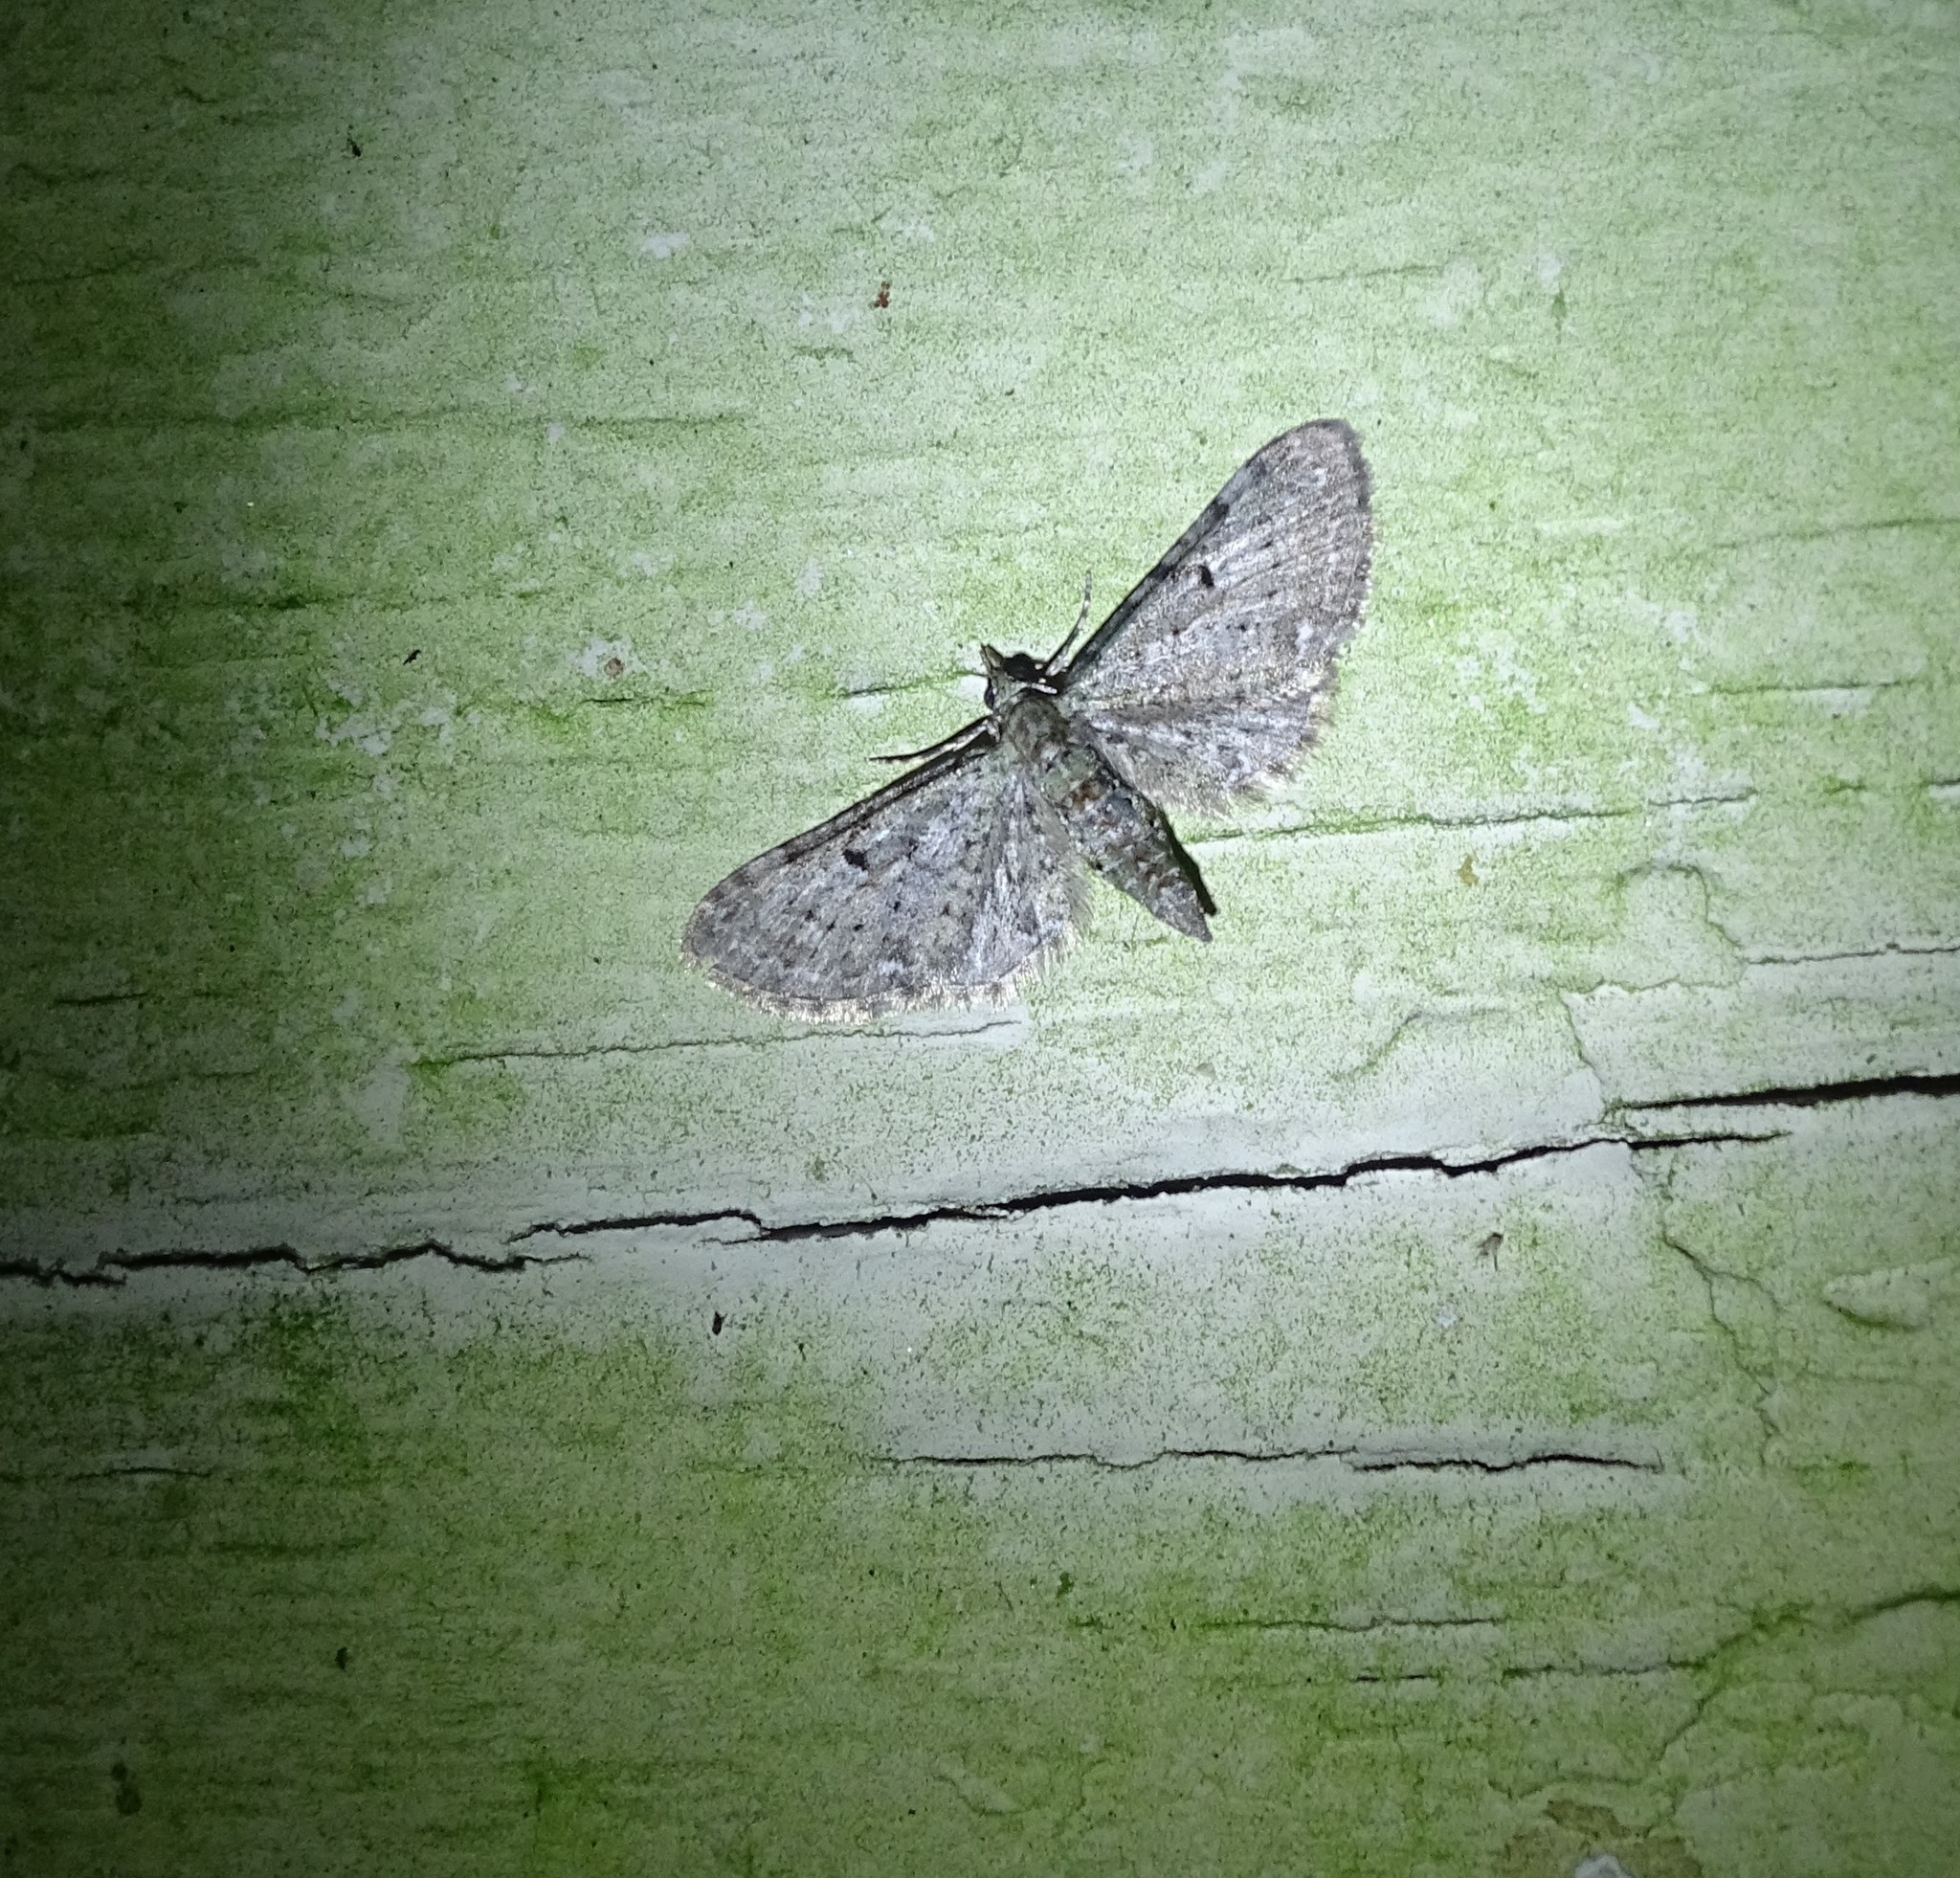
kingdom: Animalia
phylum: Arthropoda
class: Insecta
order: Lepidoptera
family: Geometridae
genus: Eupithecia
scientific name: Eupithecia miserulata
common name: Common eupithecia
